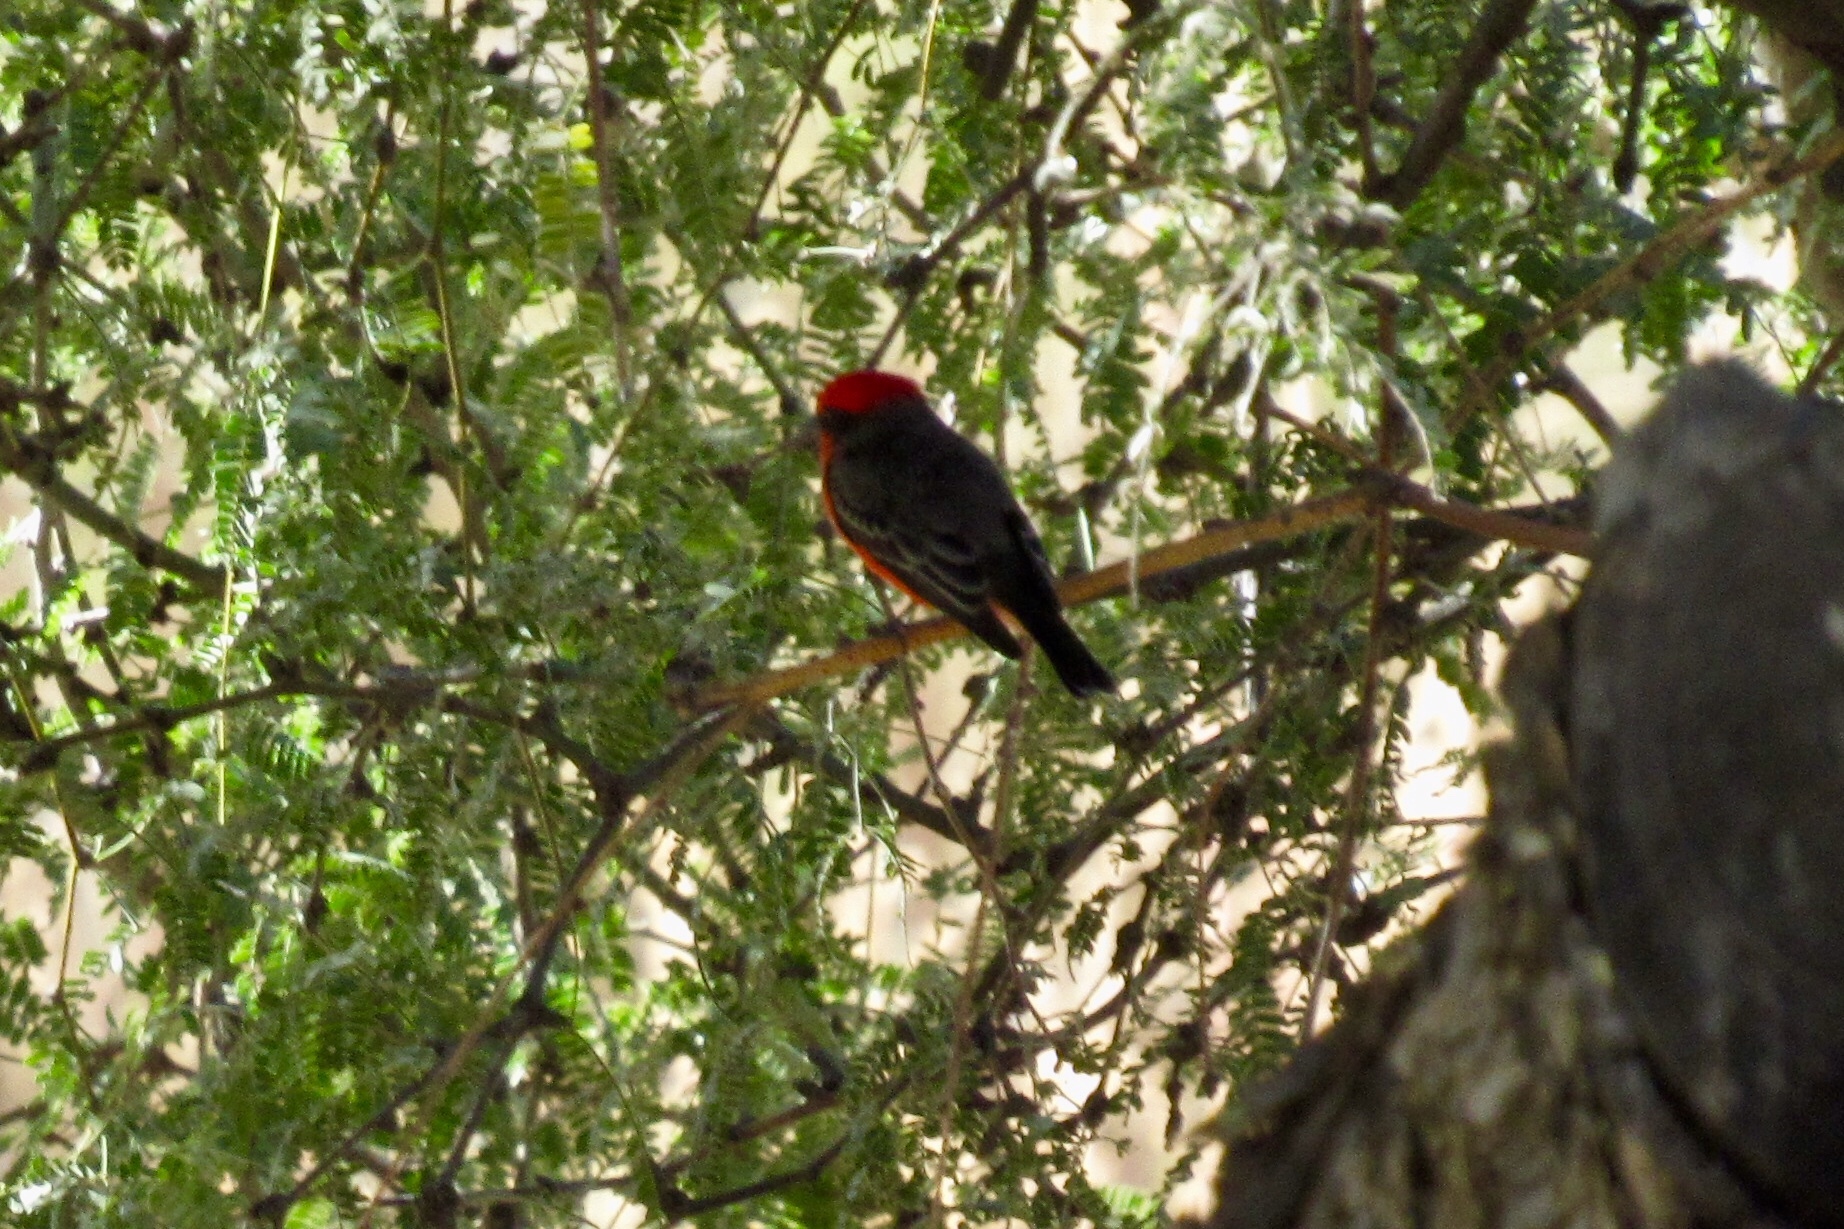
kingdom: Animalia
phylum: Chordata
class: Aves
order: Passeriformes
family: Tyrannidae
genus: Pyrocephalus
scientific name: Pyrocephalus rubinus
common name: Vermilion flycatcher
